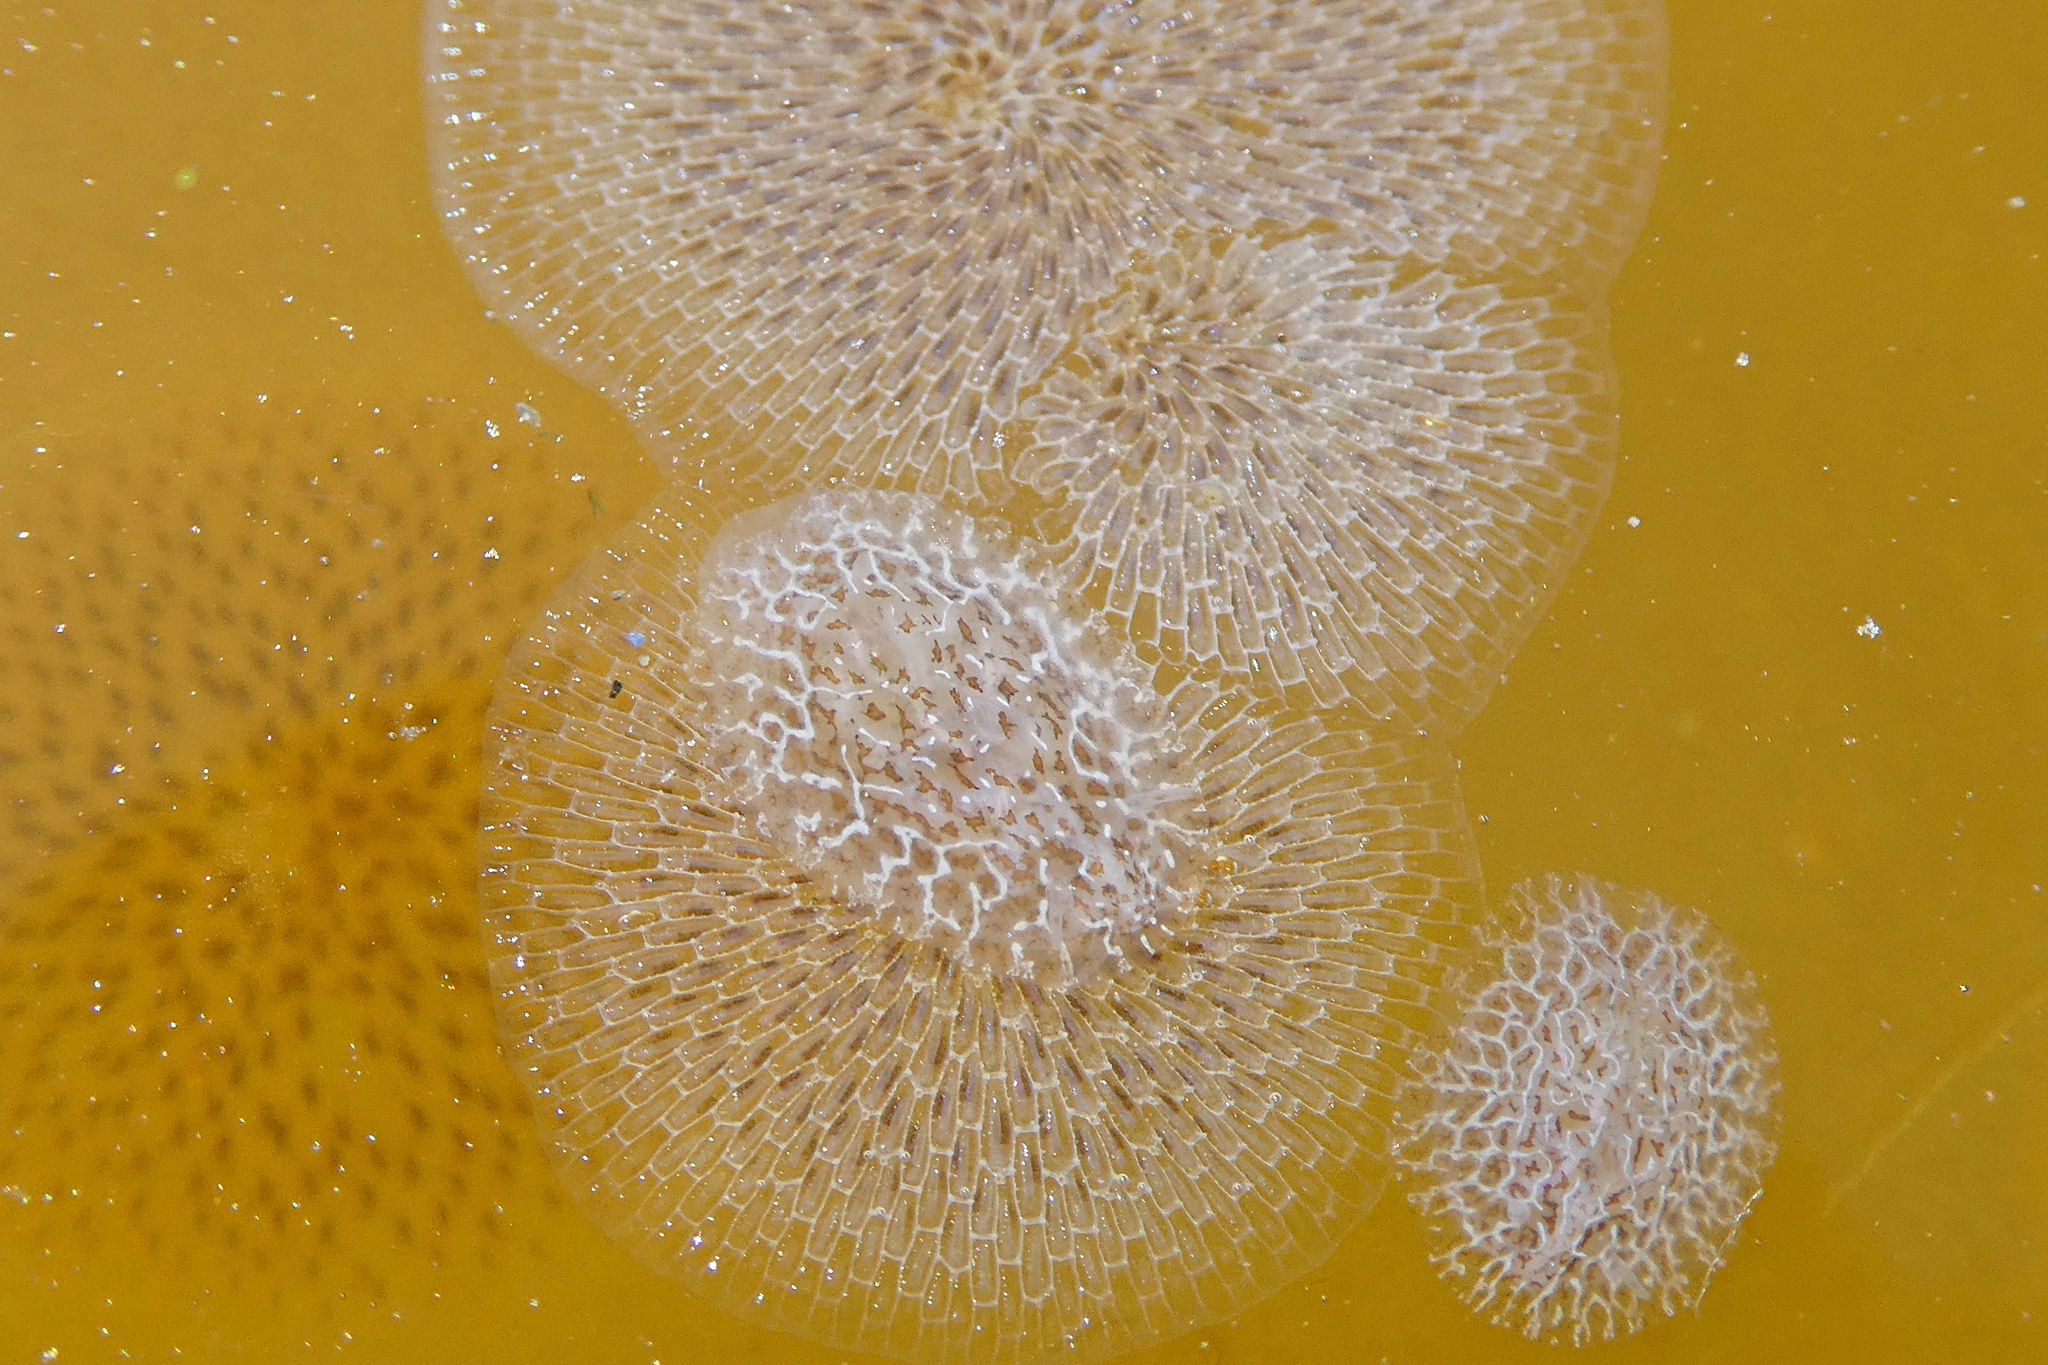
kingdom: Animalia
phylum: Mollusca
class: Gastropoda
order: Nudibranchia
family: Corambidae
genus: Corambe
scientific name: Corambe steinbergae
